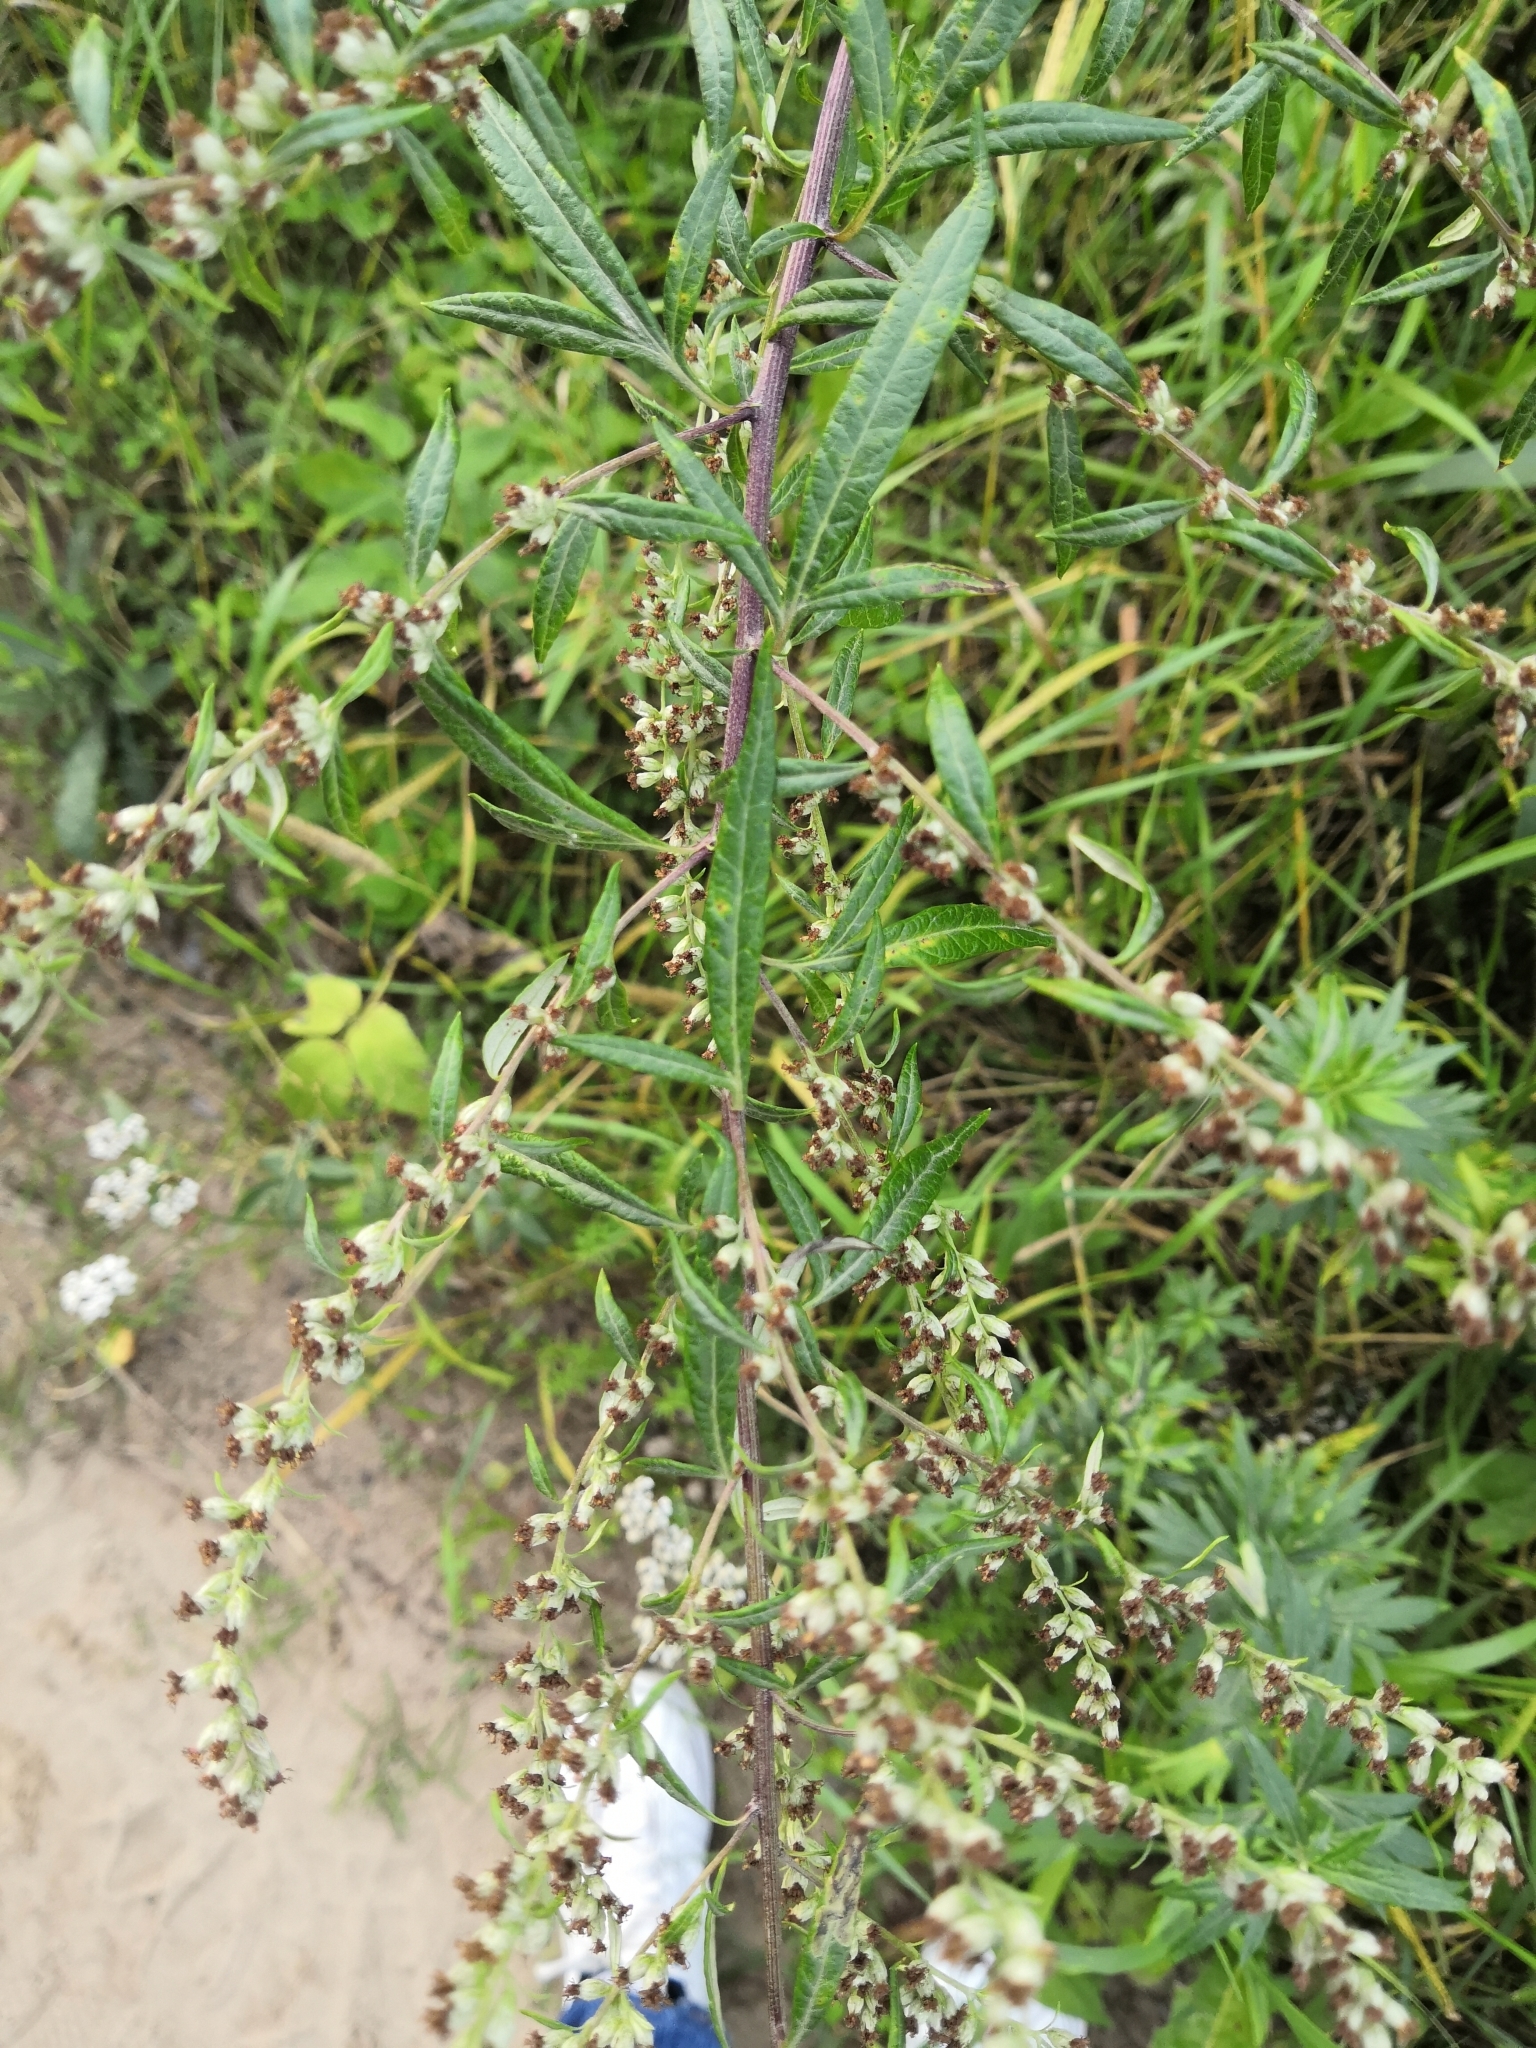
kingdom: Plantae
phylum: Tracheophyta
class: Magnoliopsida
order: Asterales
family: Asteraceae
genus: Artemisia
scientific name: Artemisia vulgaris
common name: Mugwort
